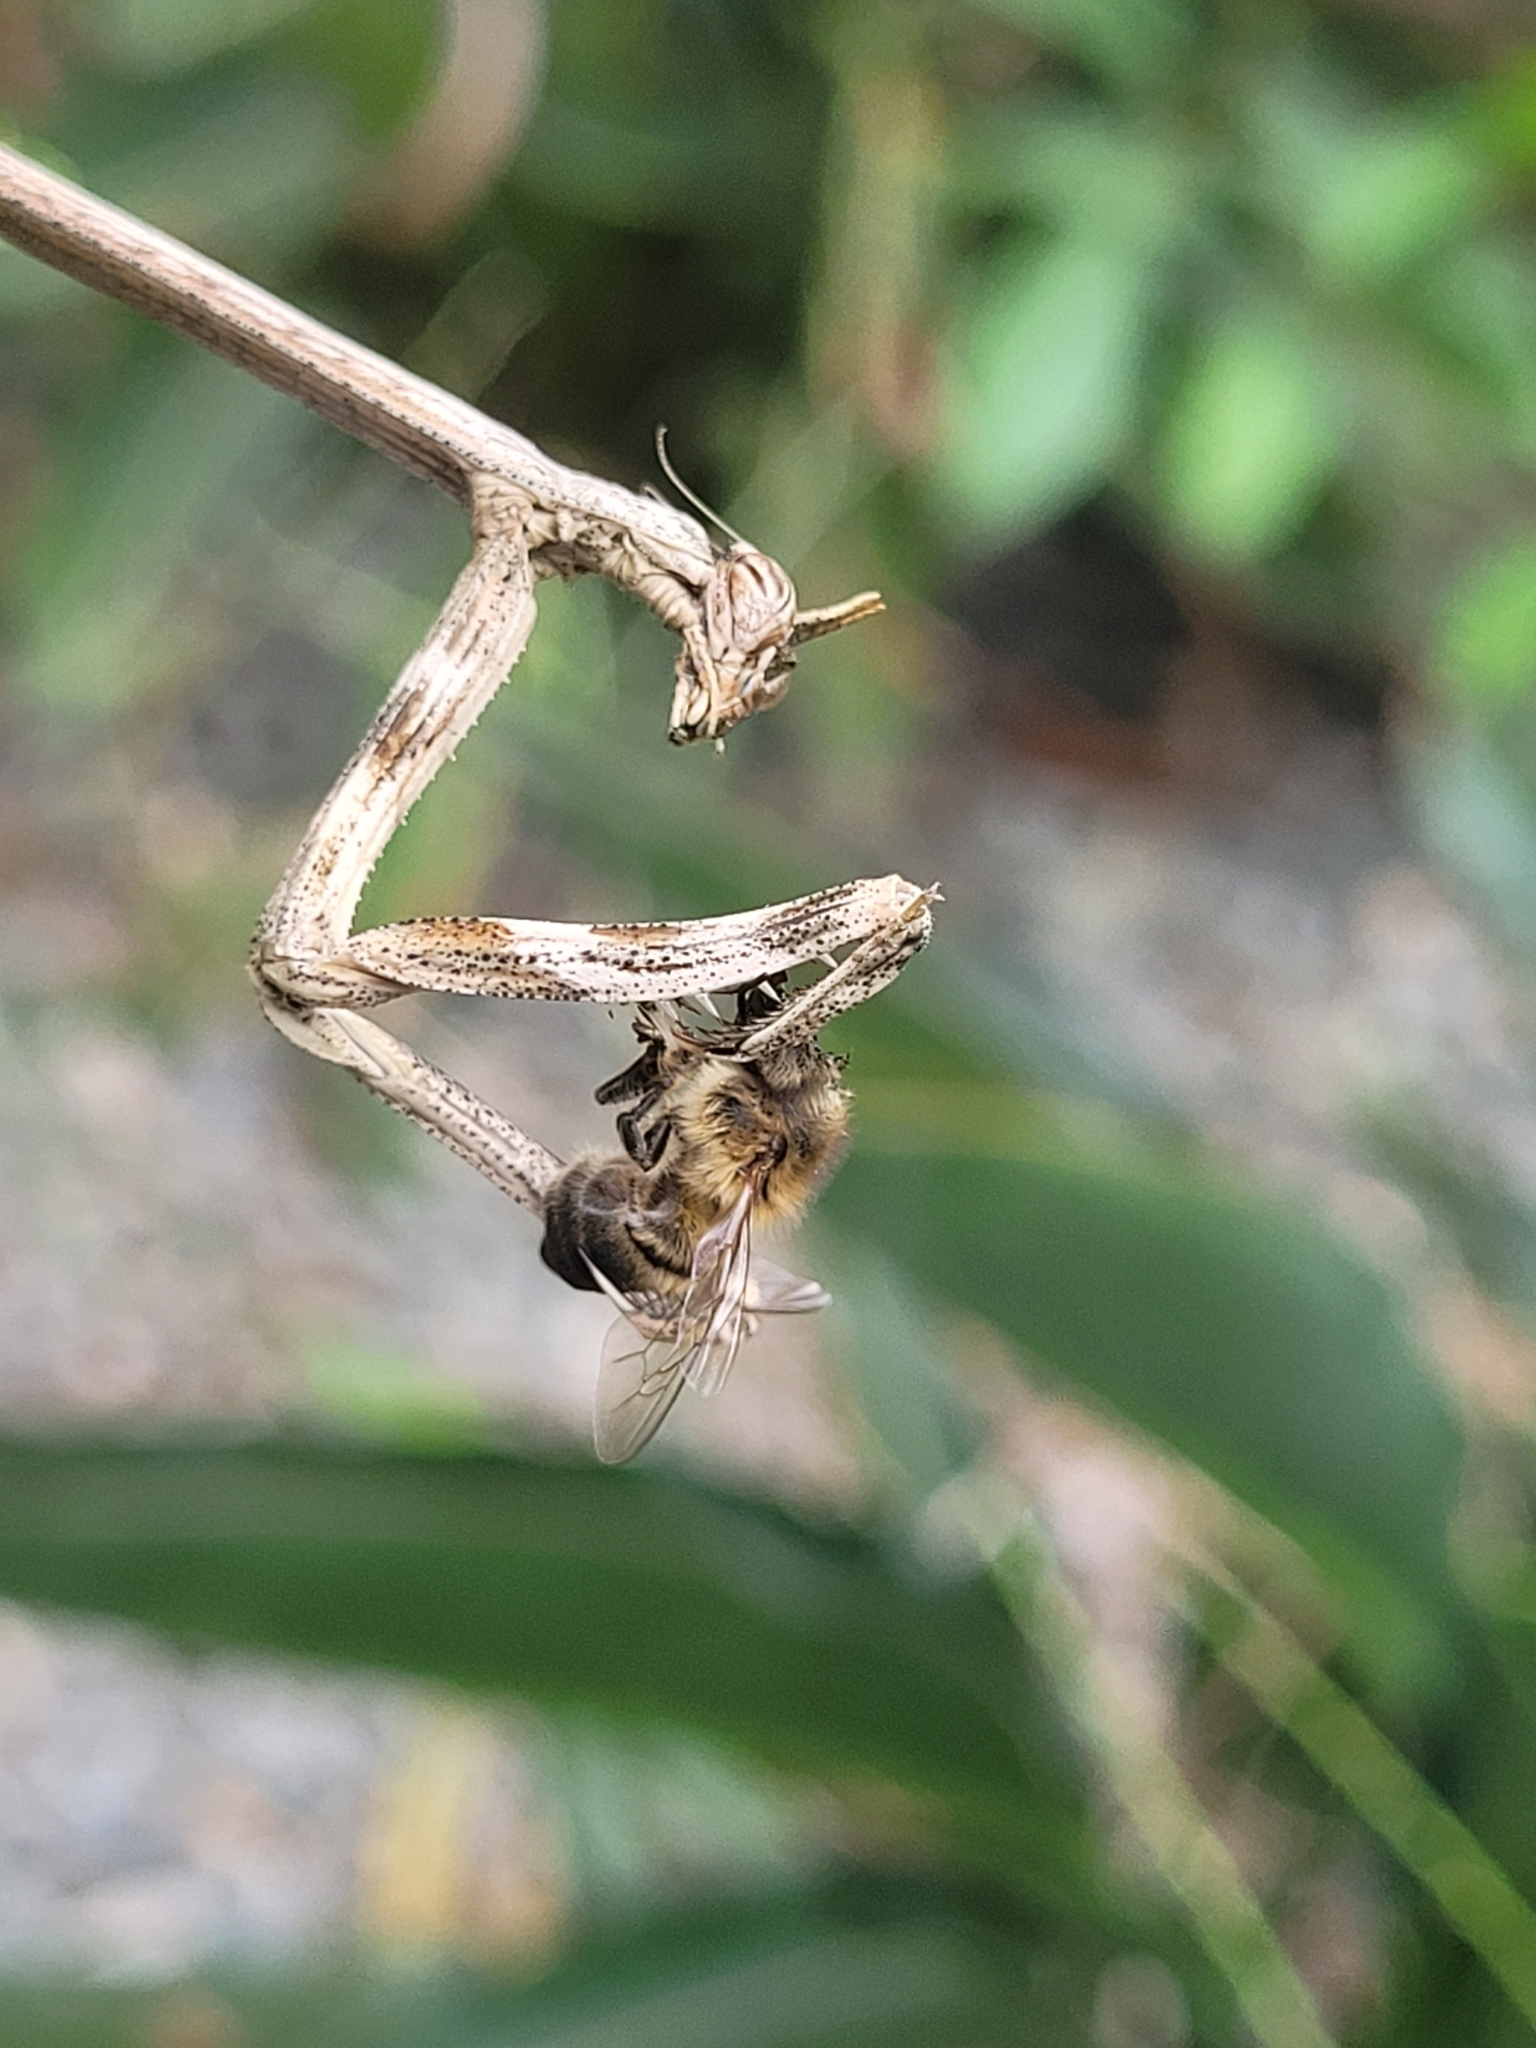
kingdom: Animalia
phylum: Arthropoda
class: Insecta
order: Mantodea
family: Mantidae
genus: Pseudovates
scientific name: Pseudovates chlorophaea
